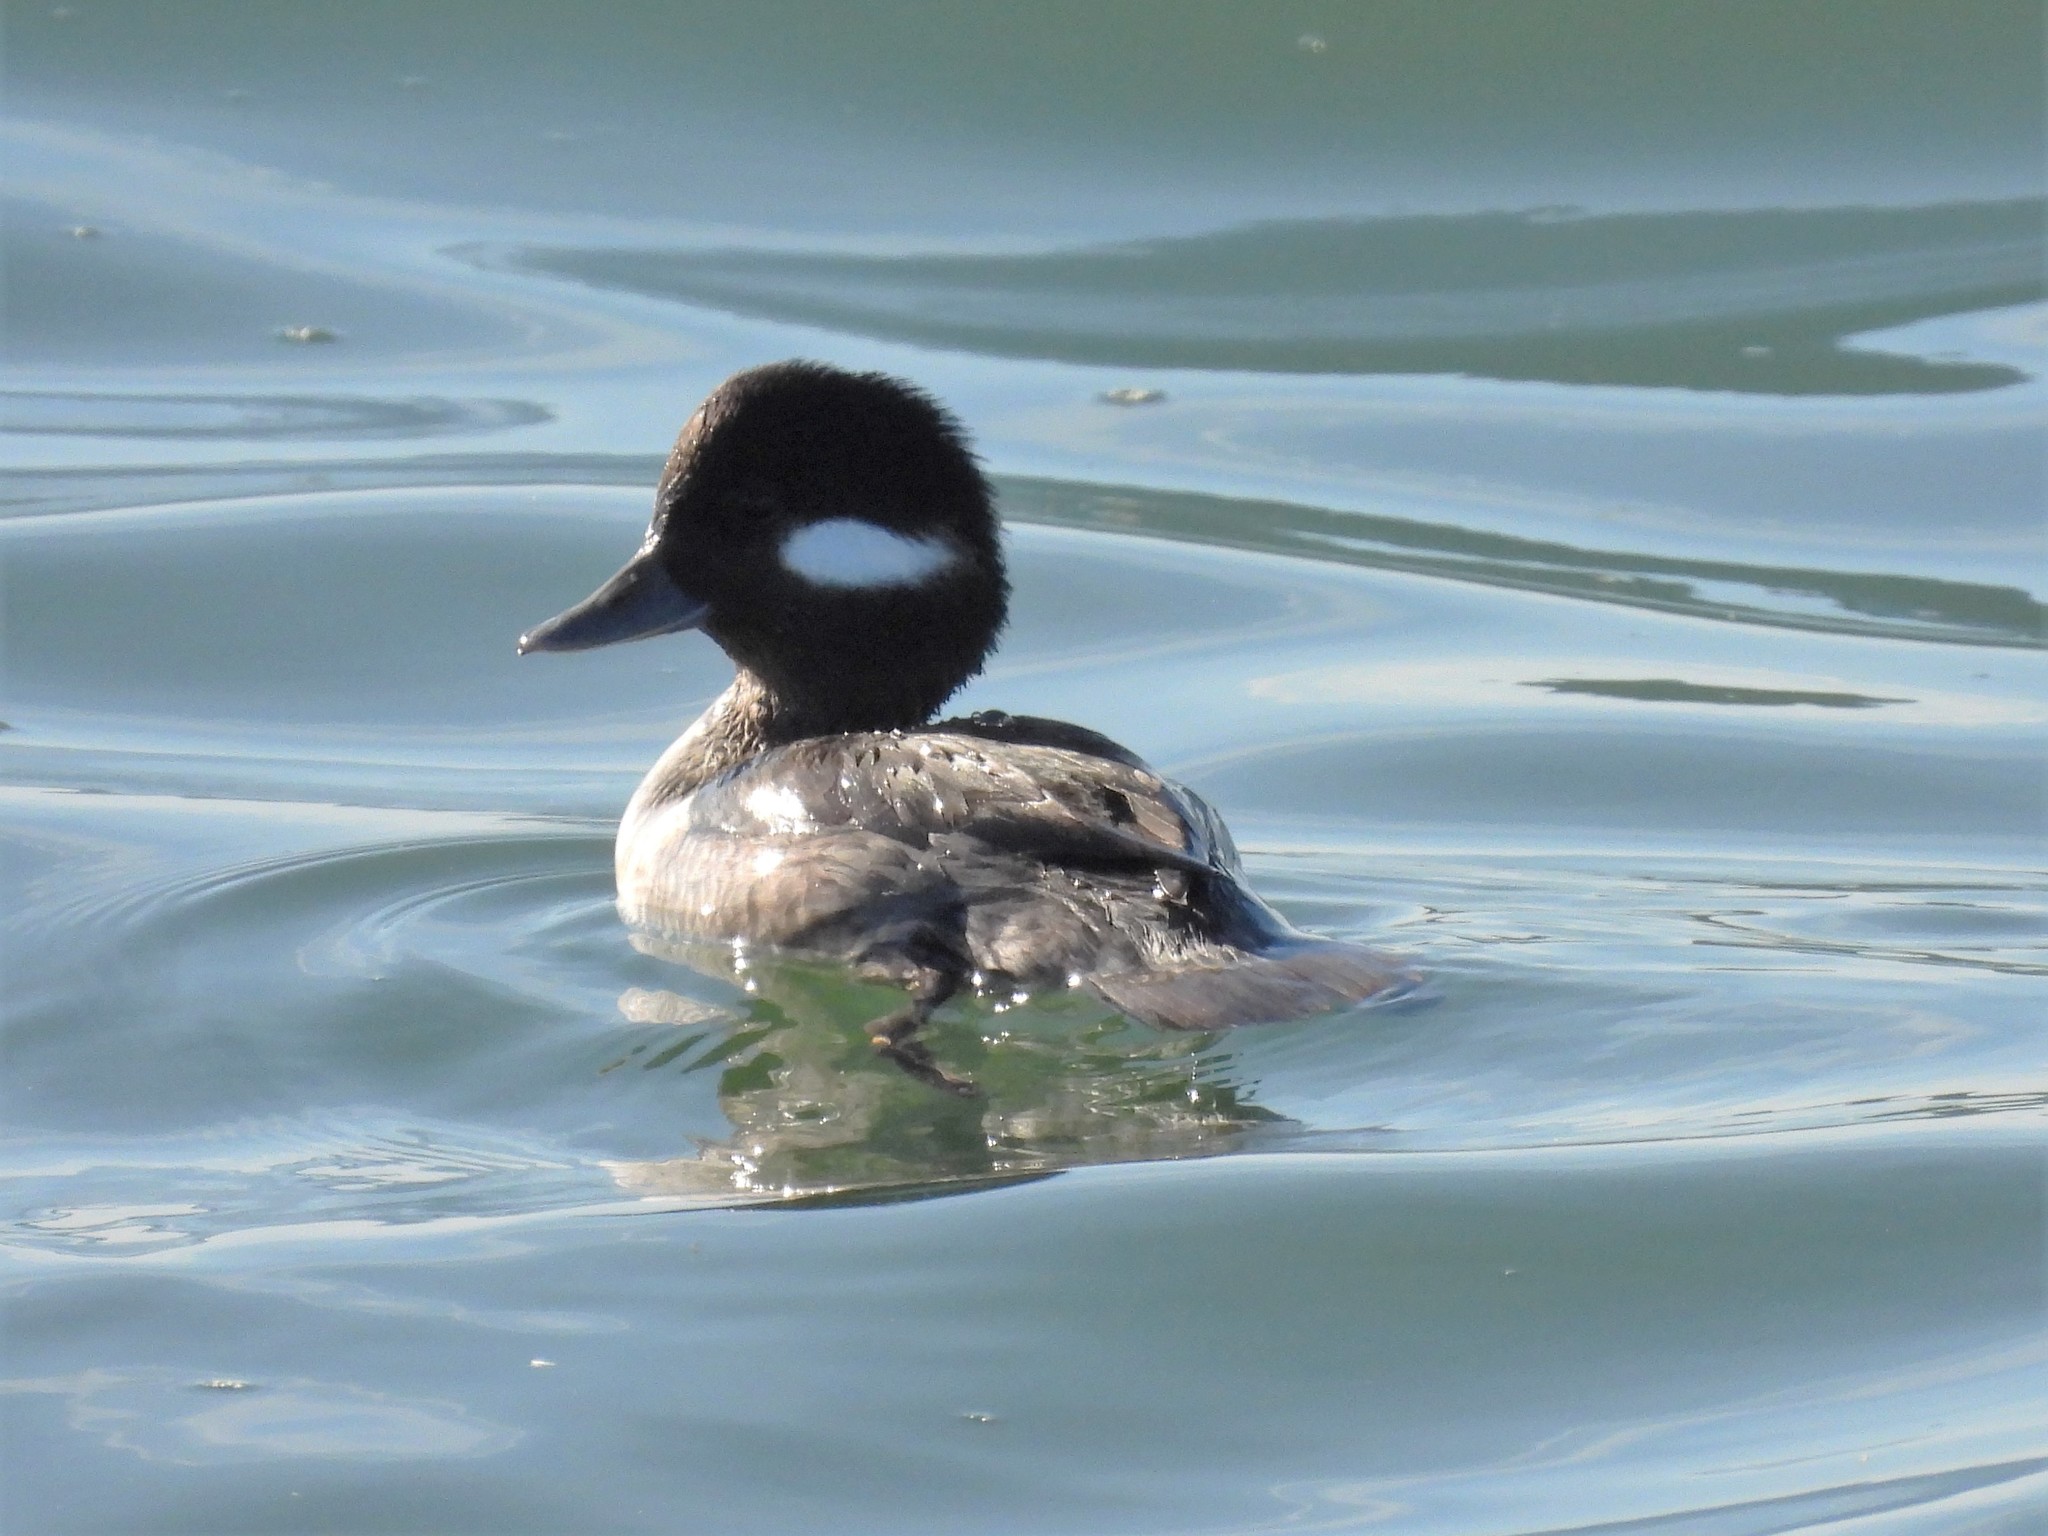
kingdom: Animalia
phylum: Chordata
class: Aves
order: Anseriformes
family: Anatidae
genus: Bucephala
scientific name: Bucephala albeola
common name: Bufflehead
